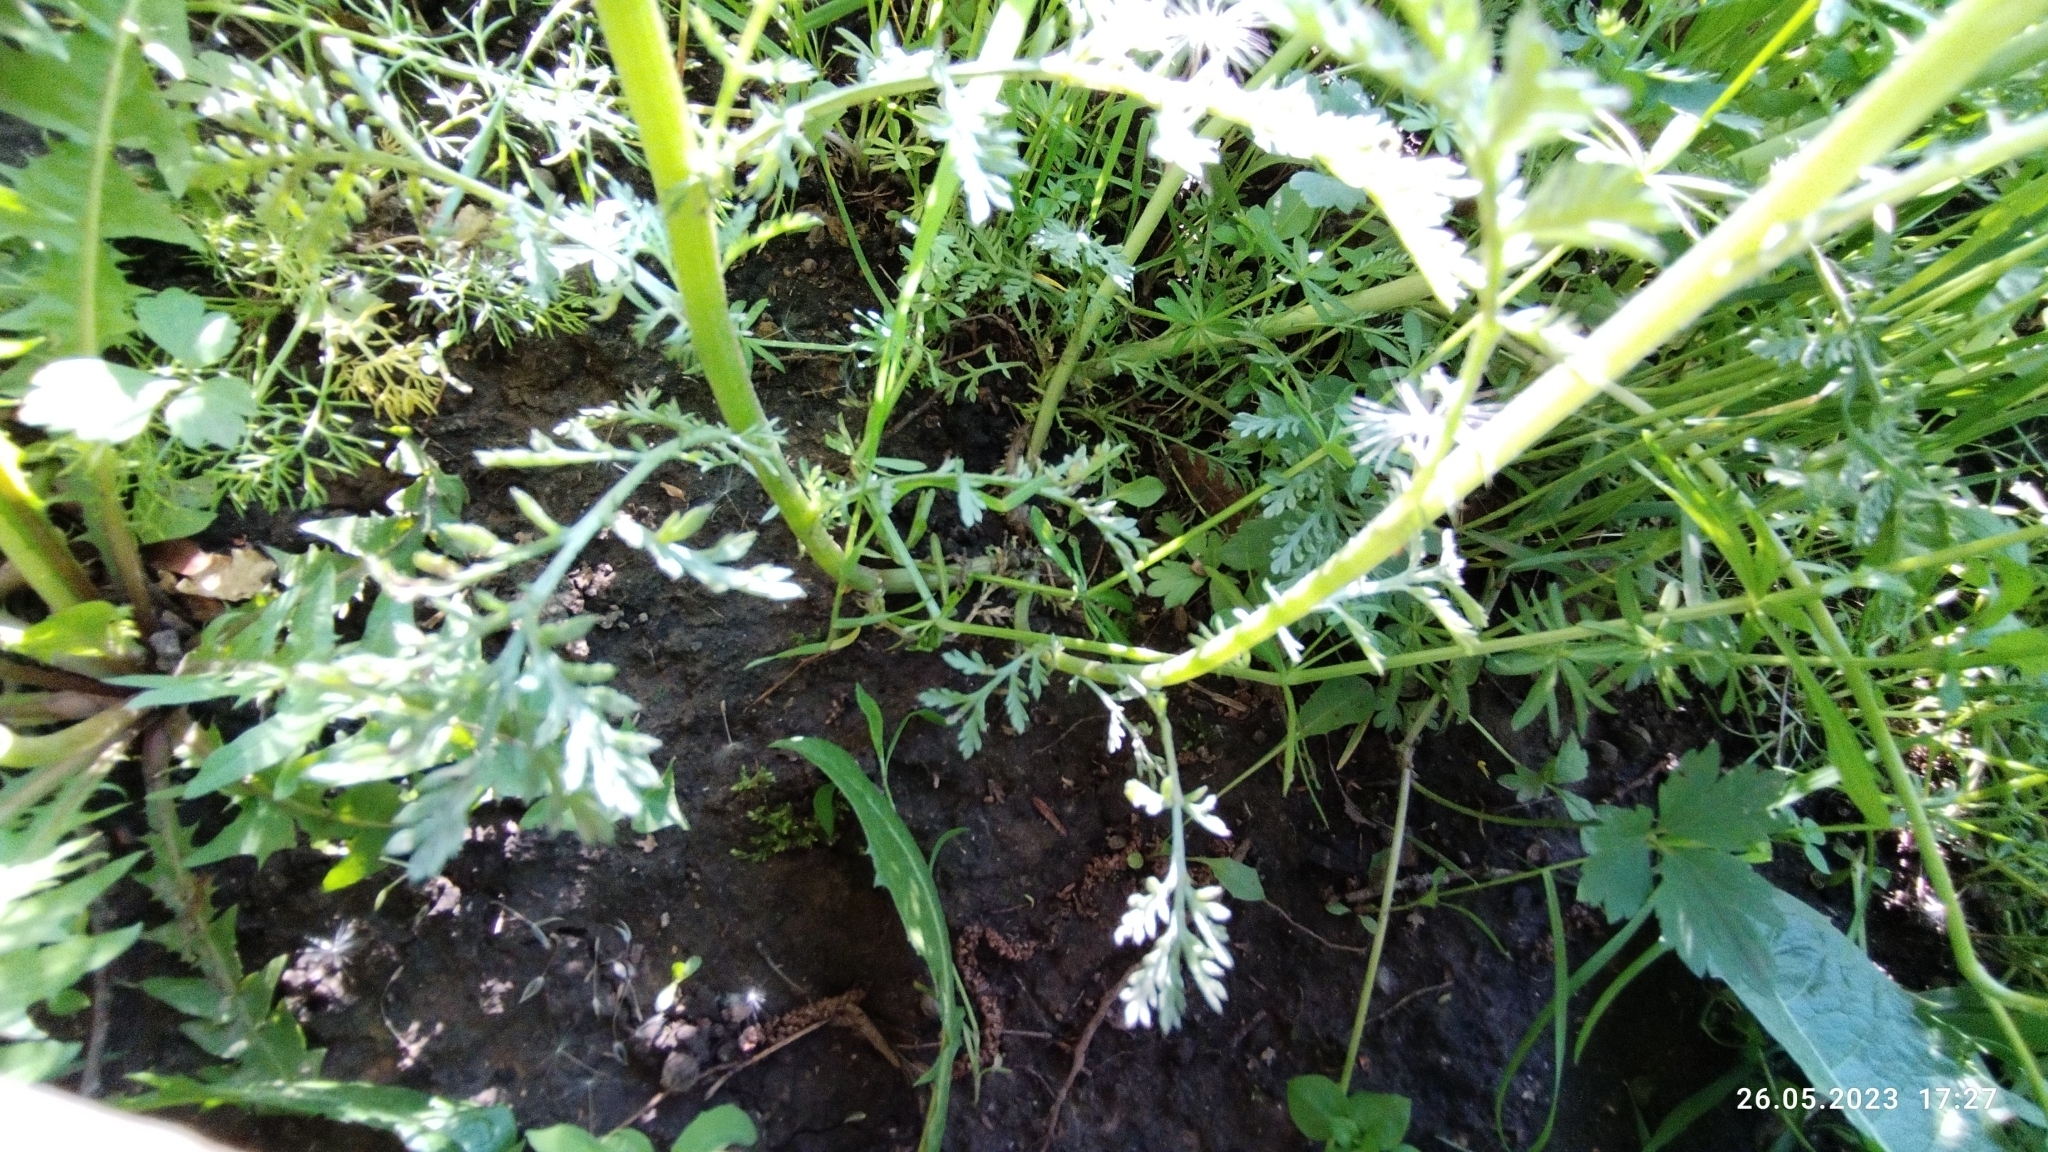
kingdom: Plantae
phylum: Tracheophyta
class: Magnoliopsida
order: Asterales
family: Asteraceae
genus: Cota
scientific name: Cota tinctoria
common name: Golden chamomile
